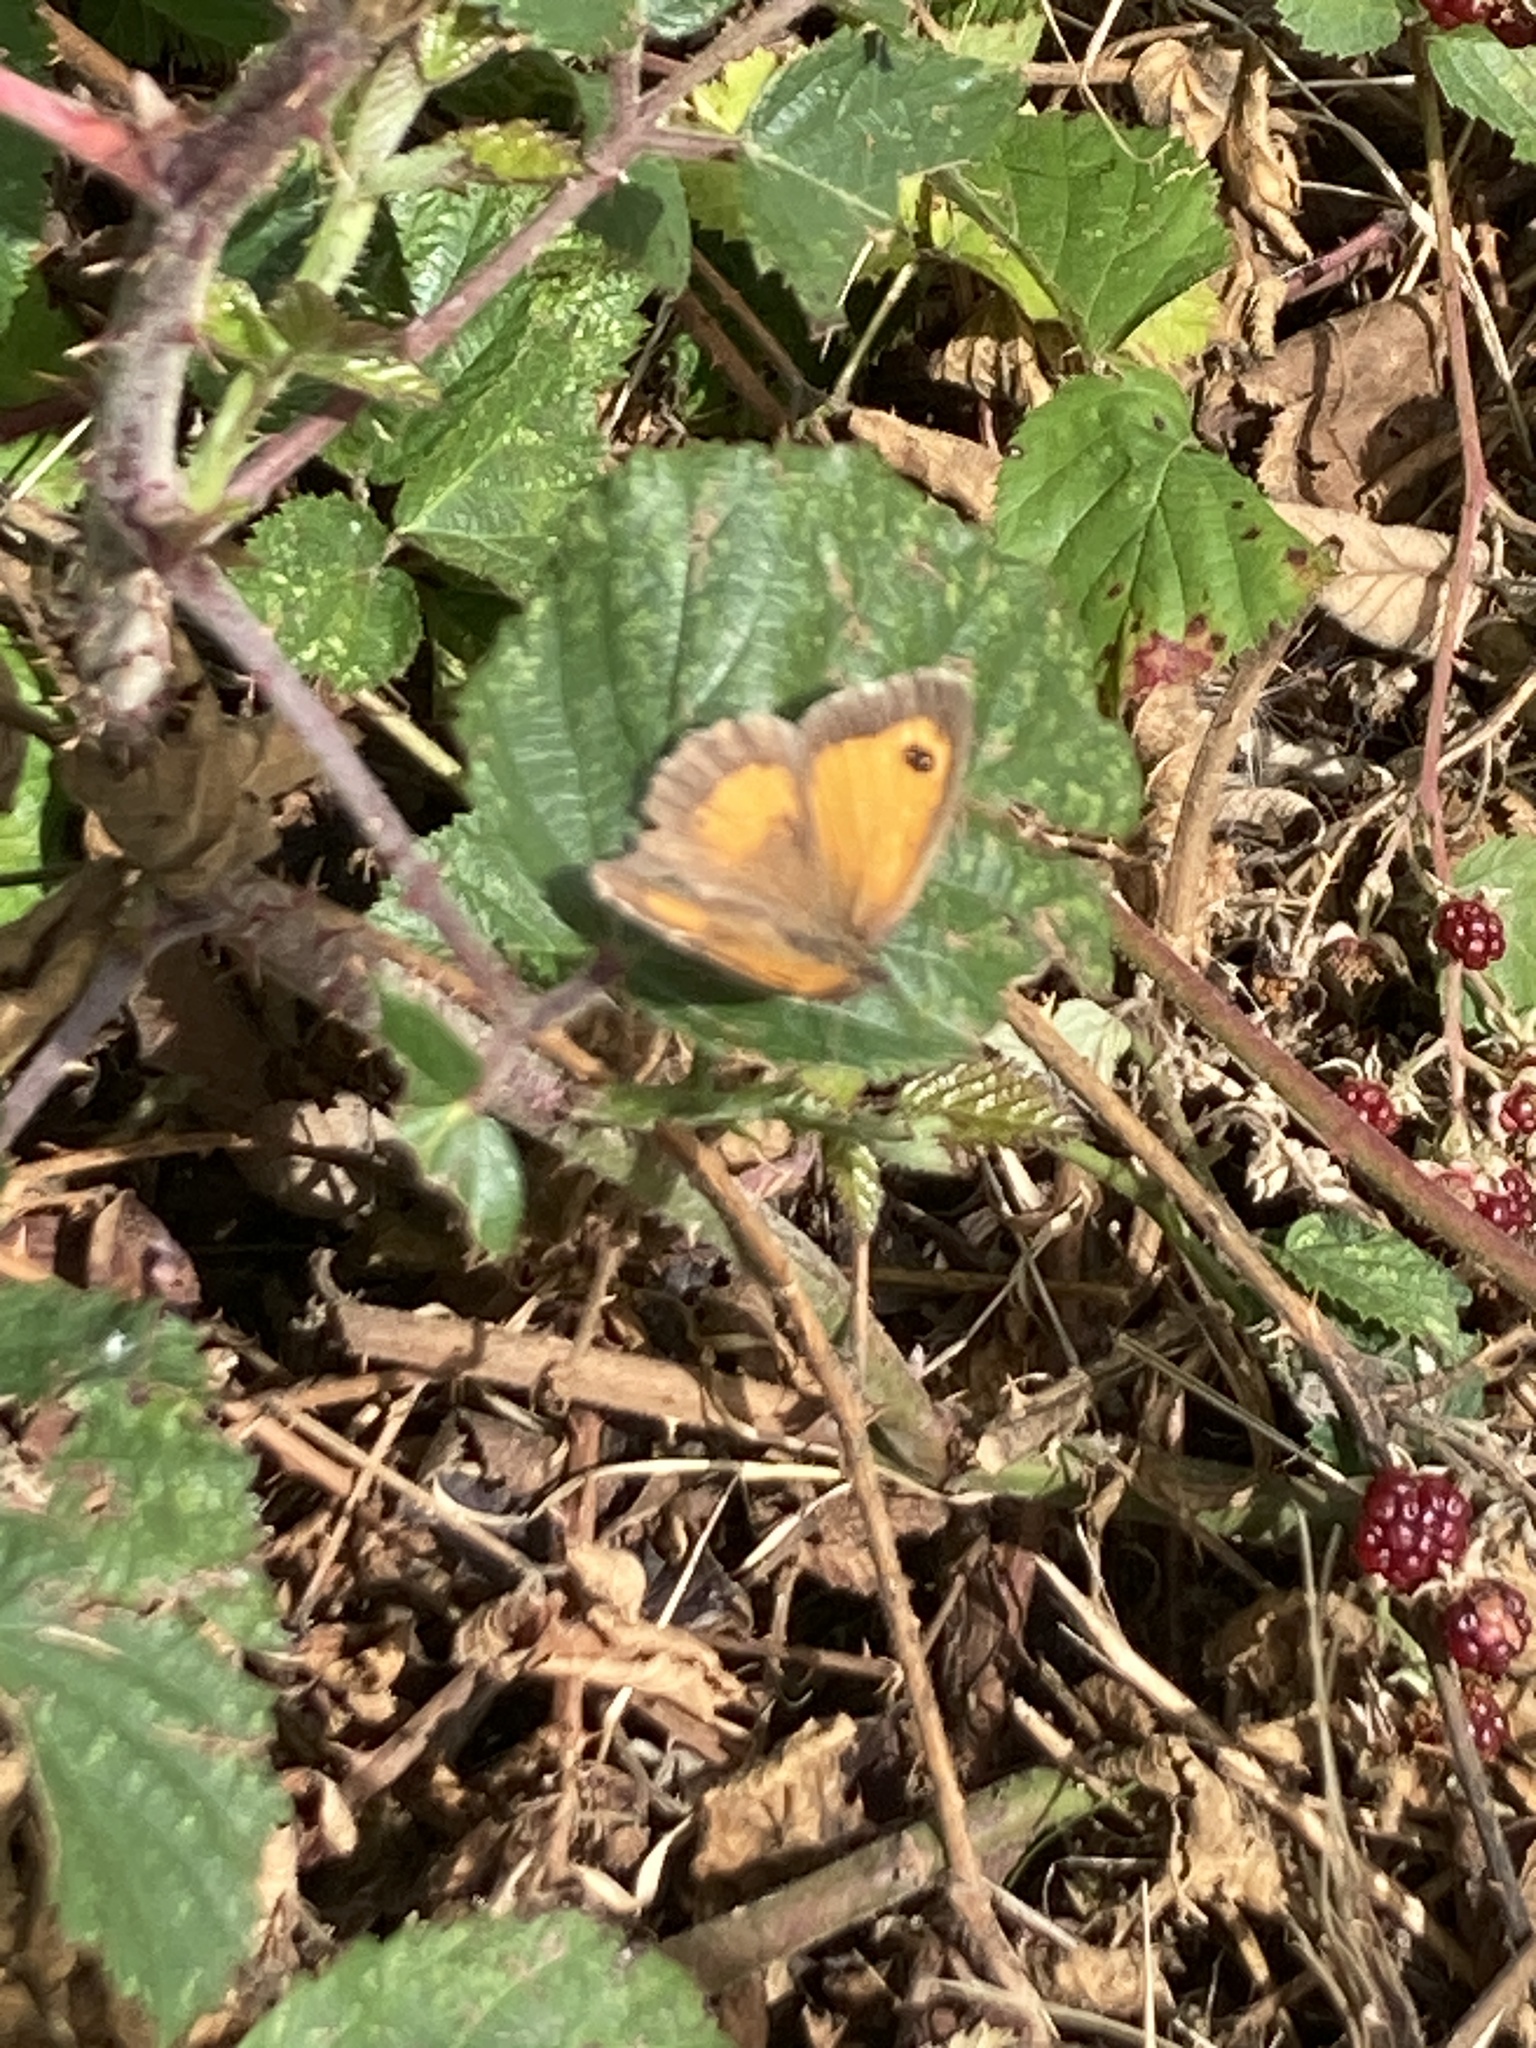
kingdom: Animalia
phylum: Arthropoda
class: Insecta
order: Lepidoptera
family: Nymphalidae
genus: Pyronia
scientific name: Pyronia tithonus
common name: Gatekeeper
